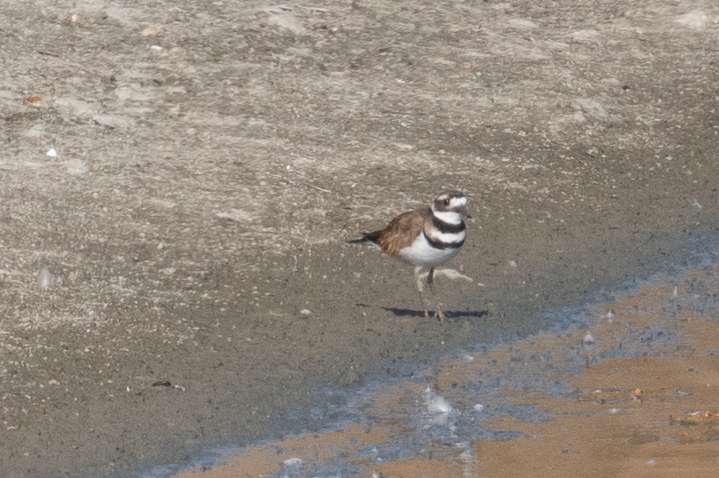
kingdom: Animalia
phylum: Chordata
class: Aves
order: Charadriiformes
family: Charadriidae
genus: Charadrius
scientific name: Charadrius vociferus
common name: Killdeer
